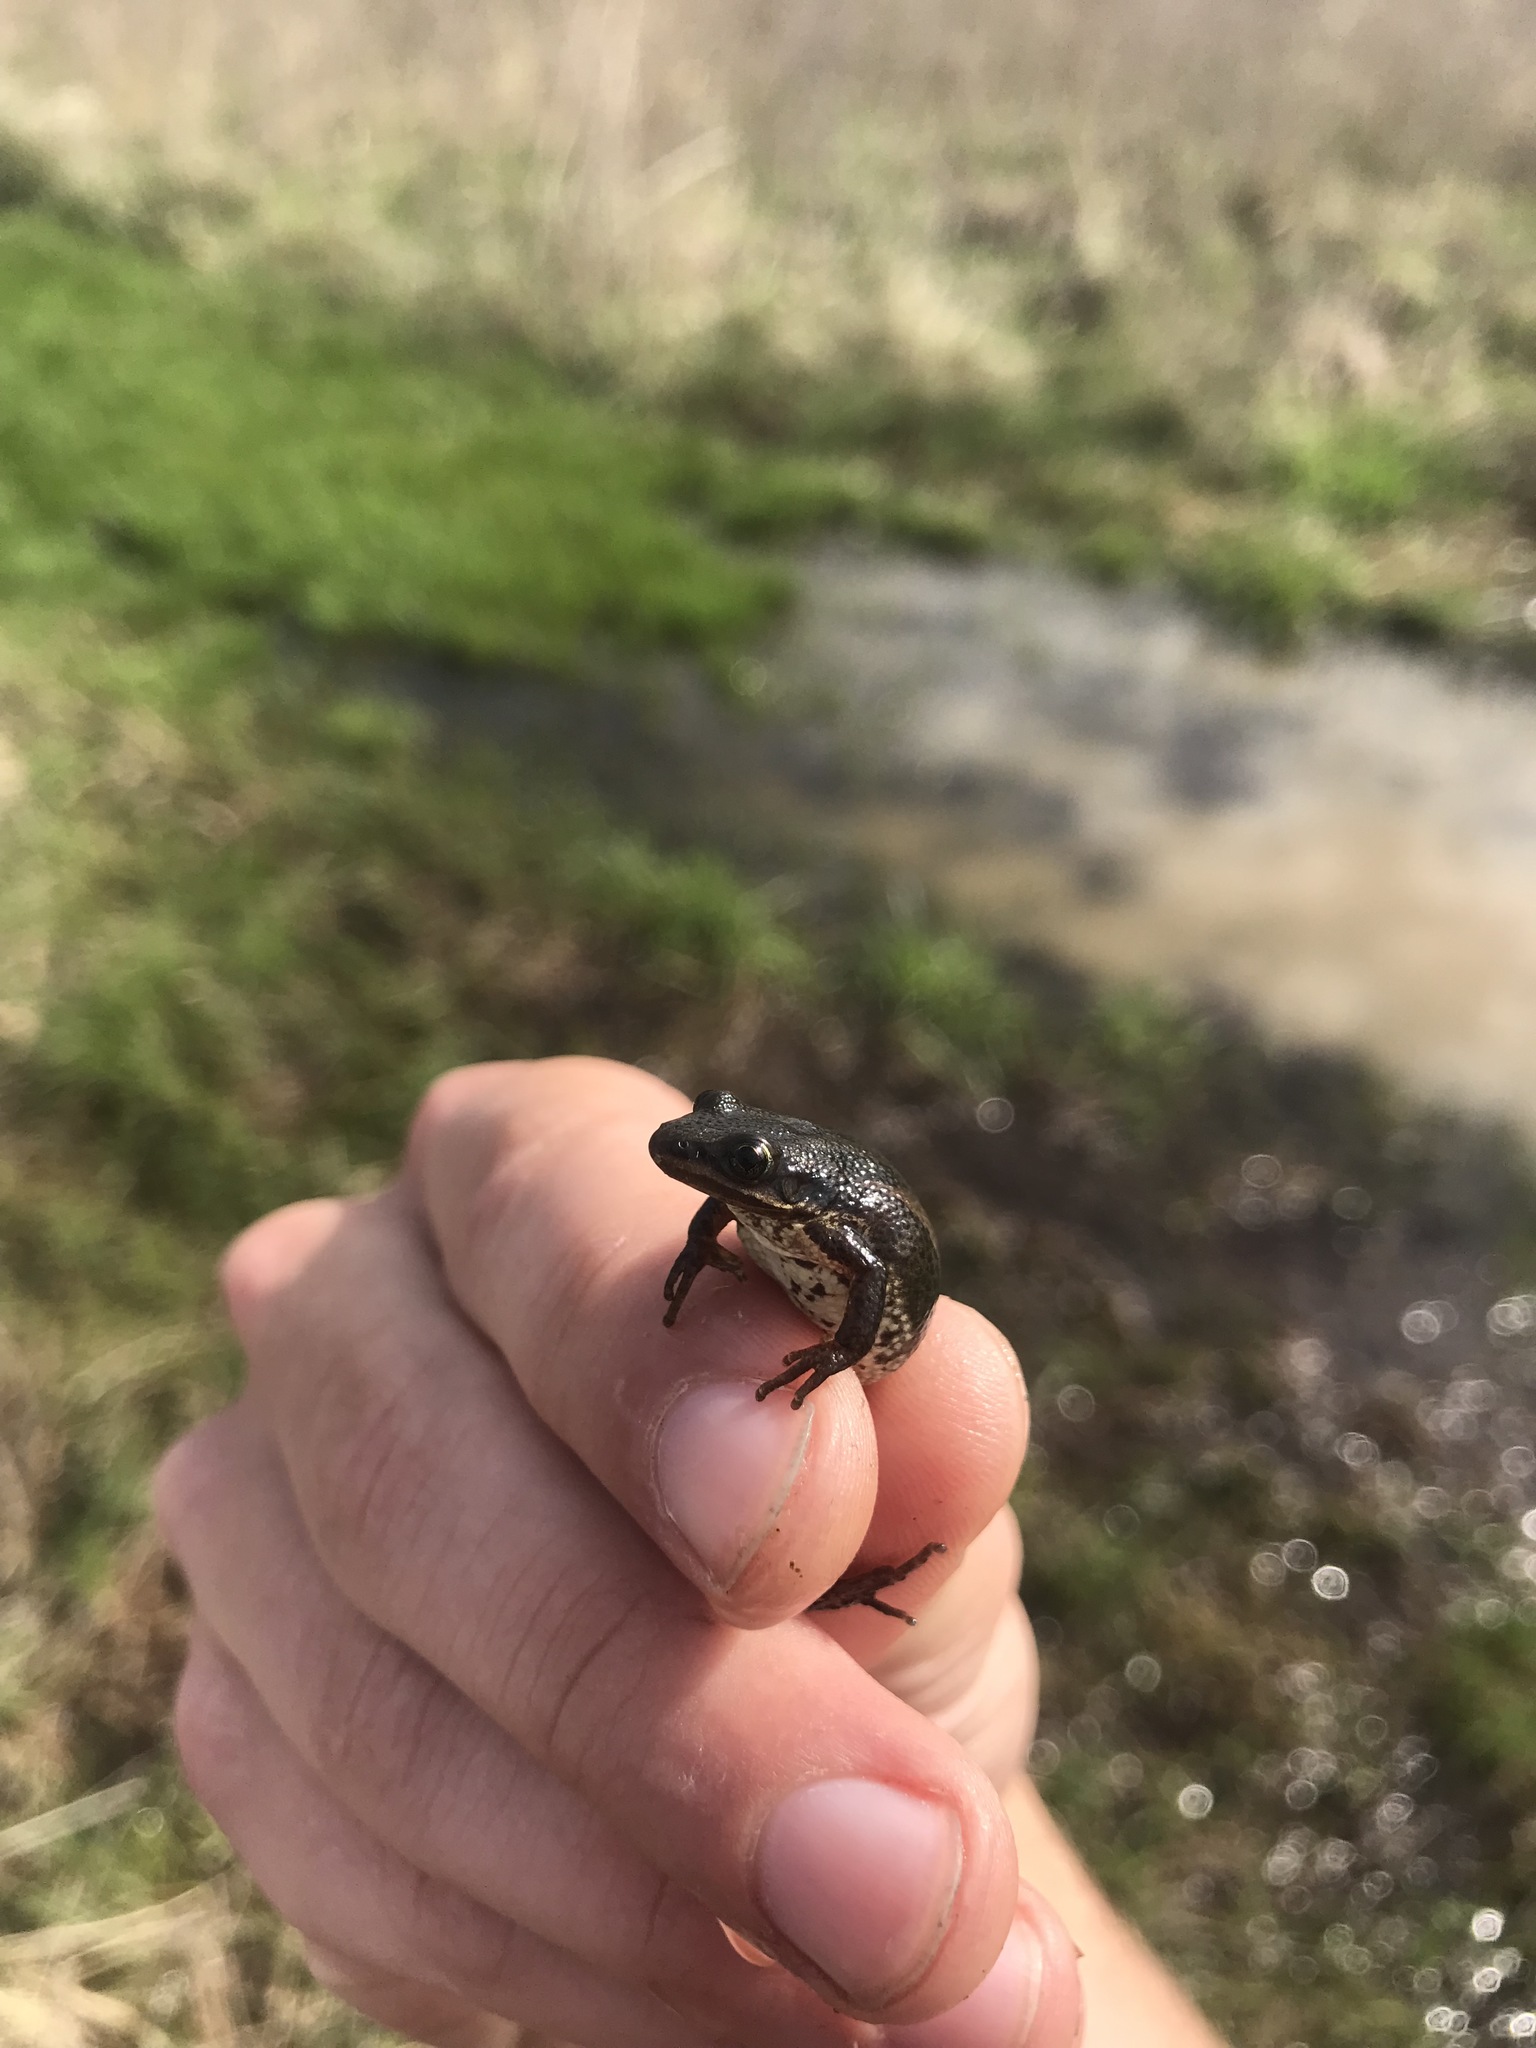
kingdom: Animalia
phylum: Chordata
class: Amphibia
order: Anura
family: Hylidae
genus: Pseudacris
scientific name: Pseudacris maculata
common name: Boreal chorus frog
